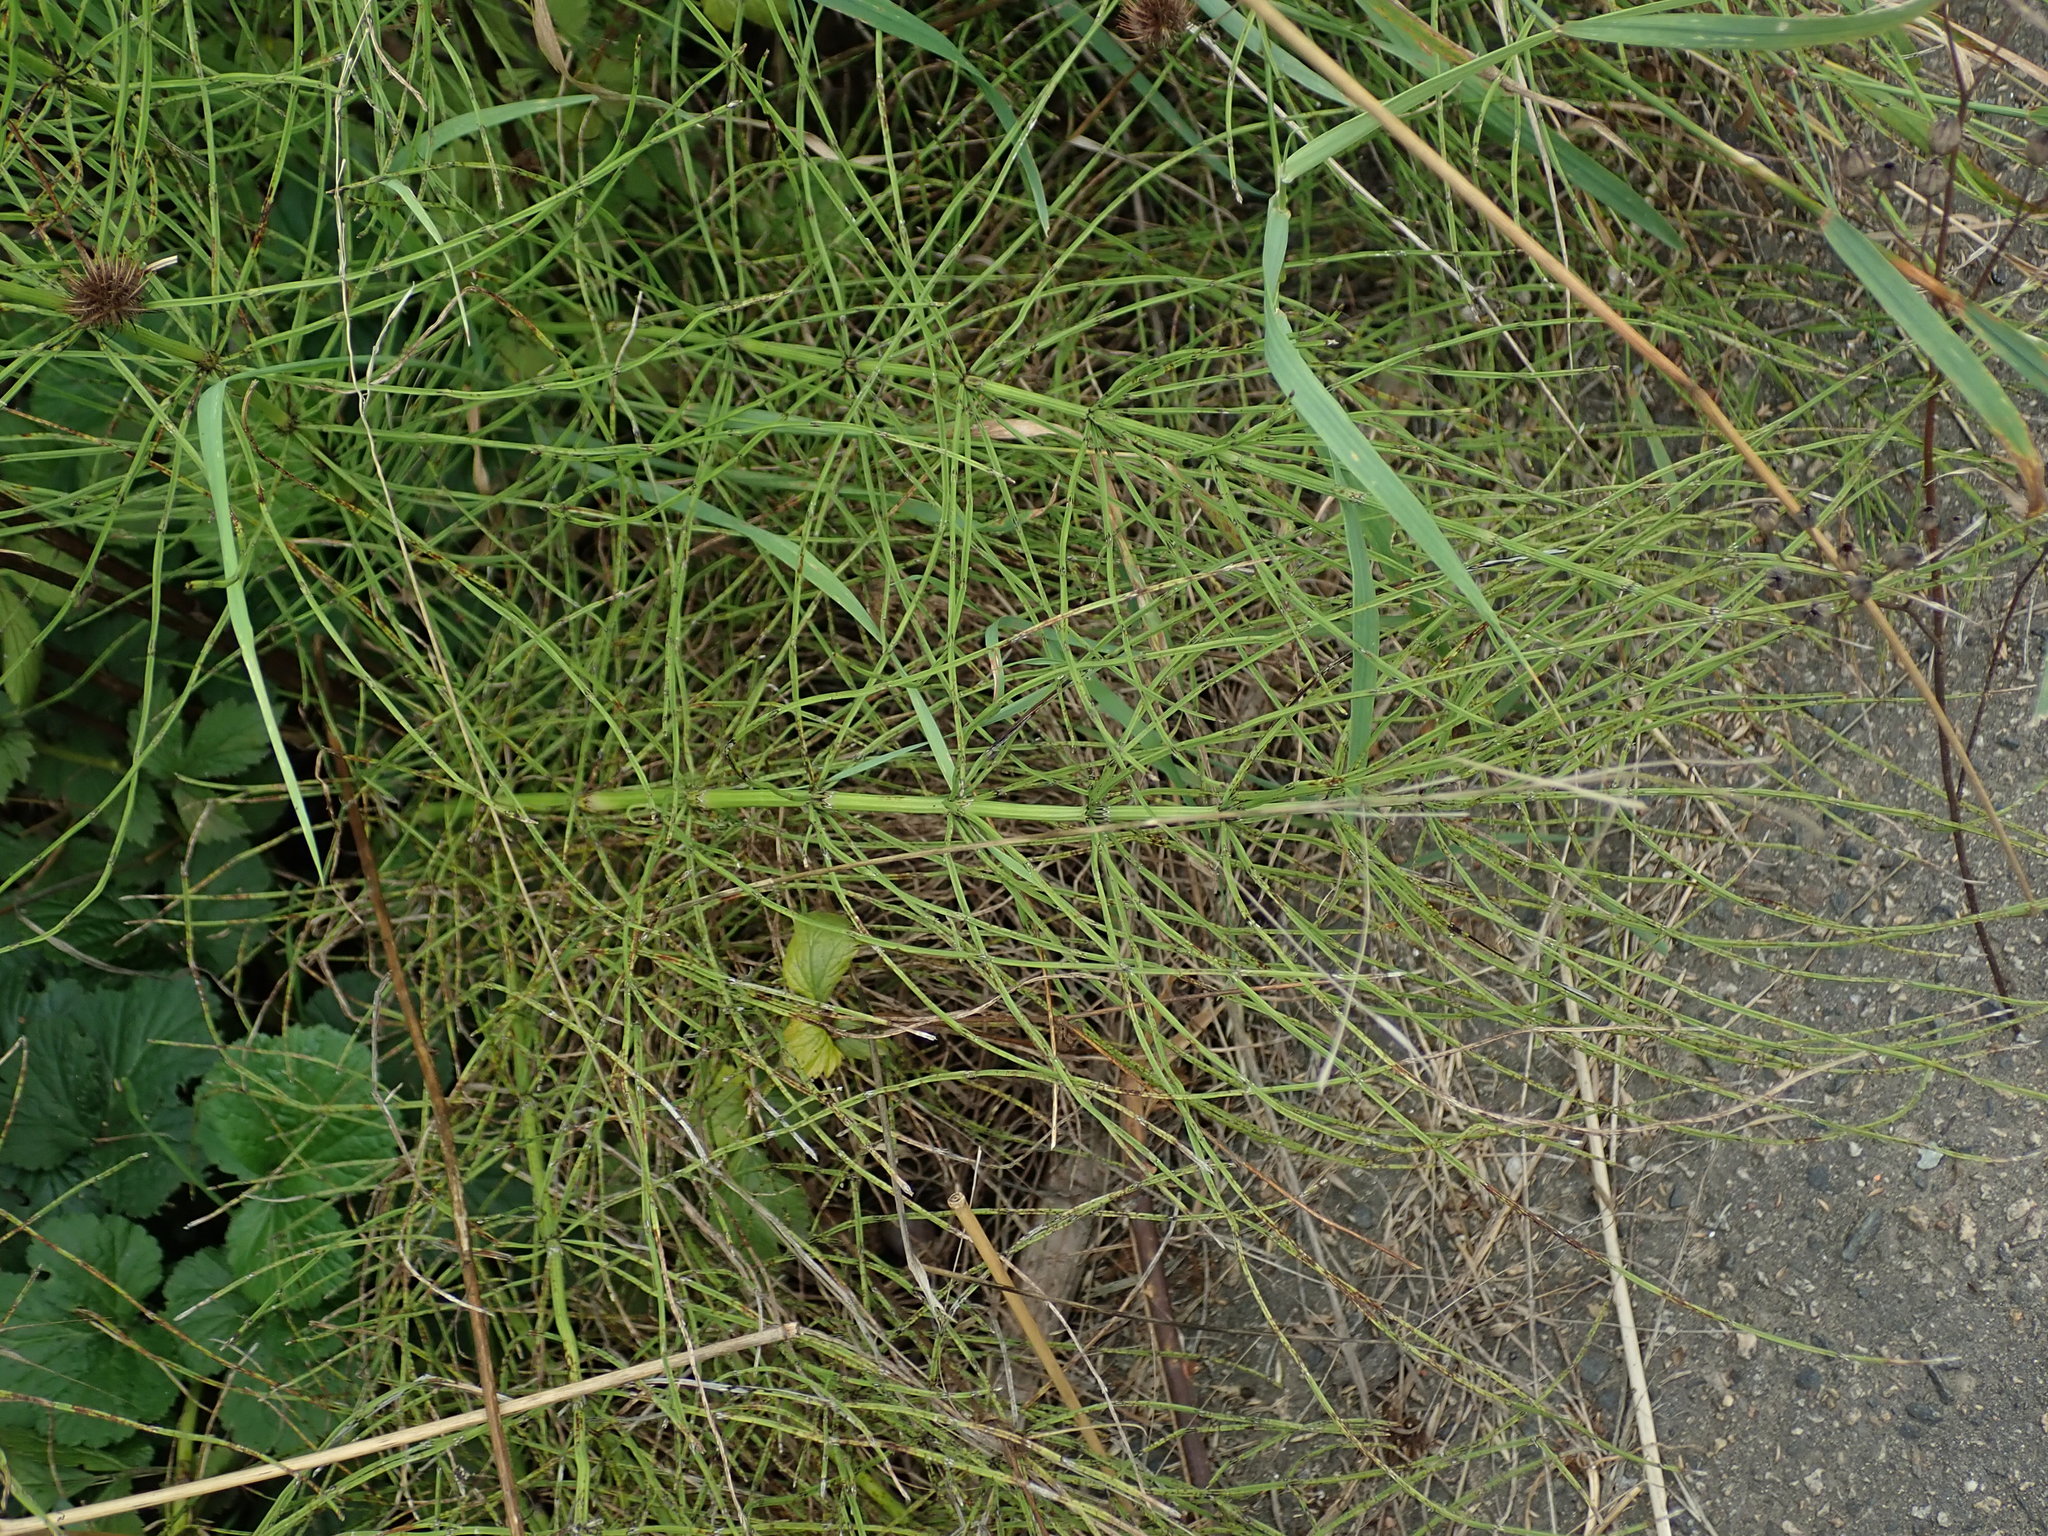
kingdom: Plantae
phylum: Tracheophyta
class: Polypodiopsida
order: Equisetales
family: Equisetaceae
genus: Equisetum
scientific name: Equisetum arvense
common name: Field horsetail
